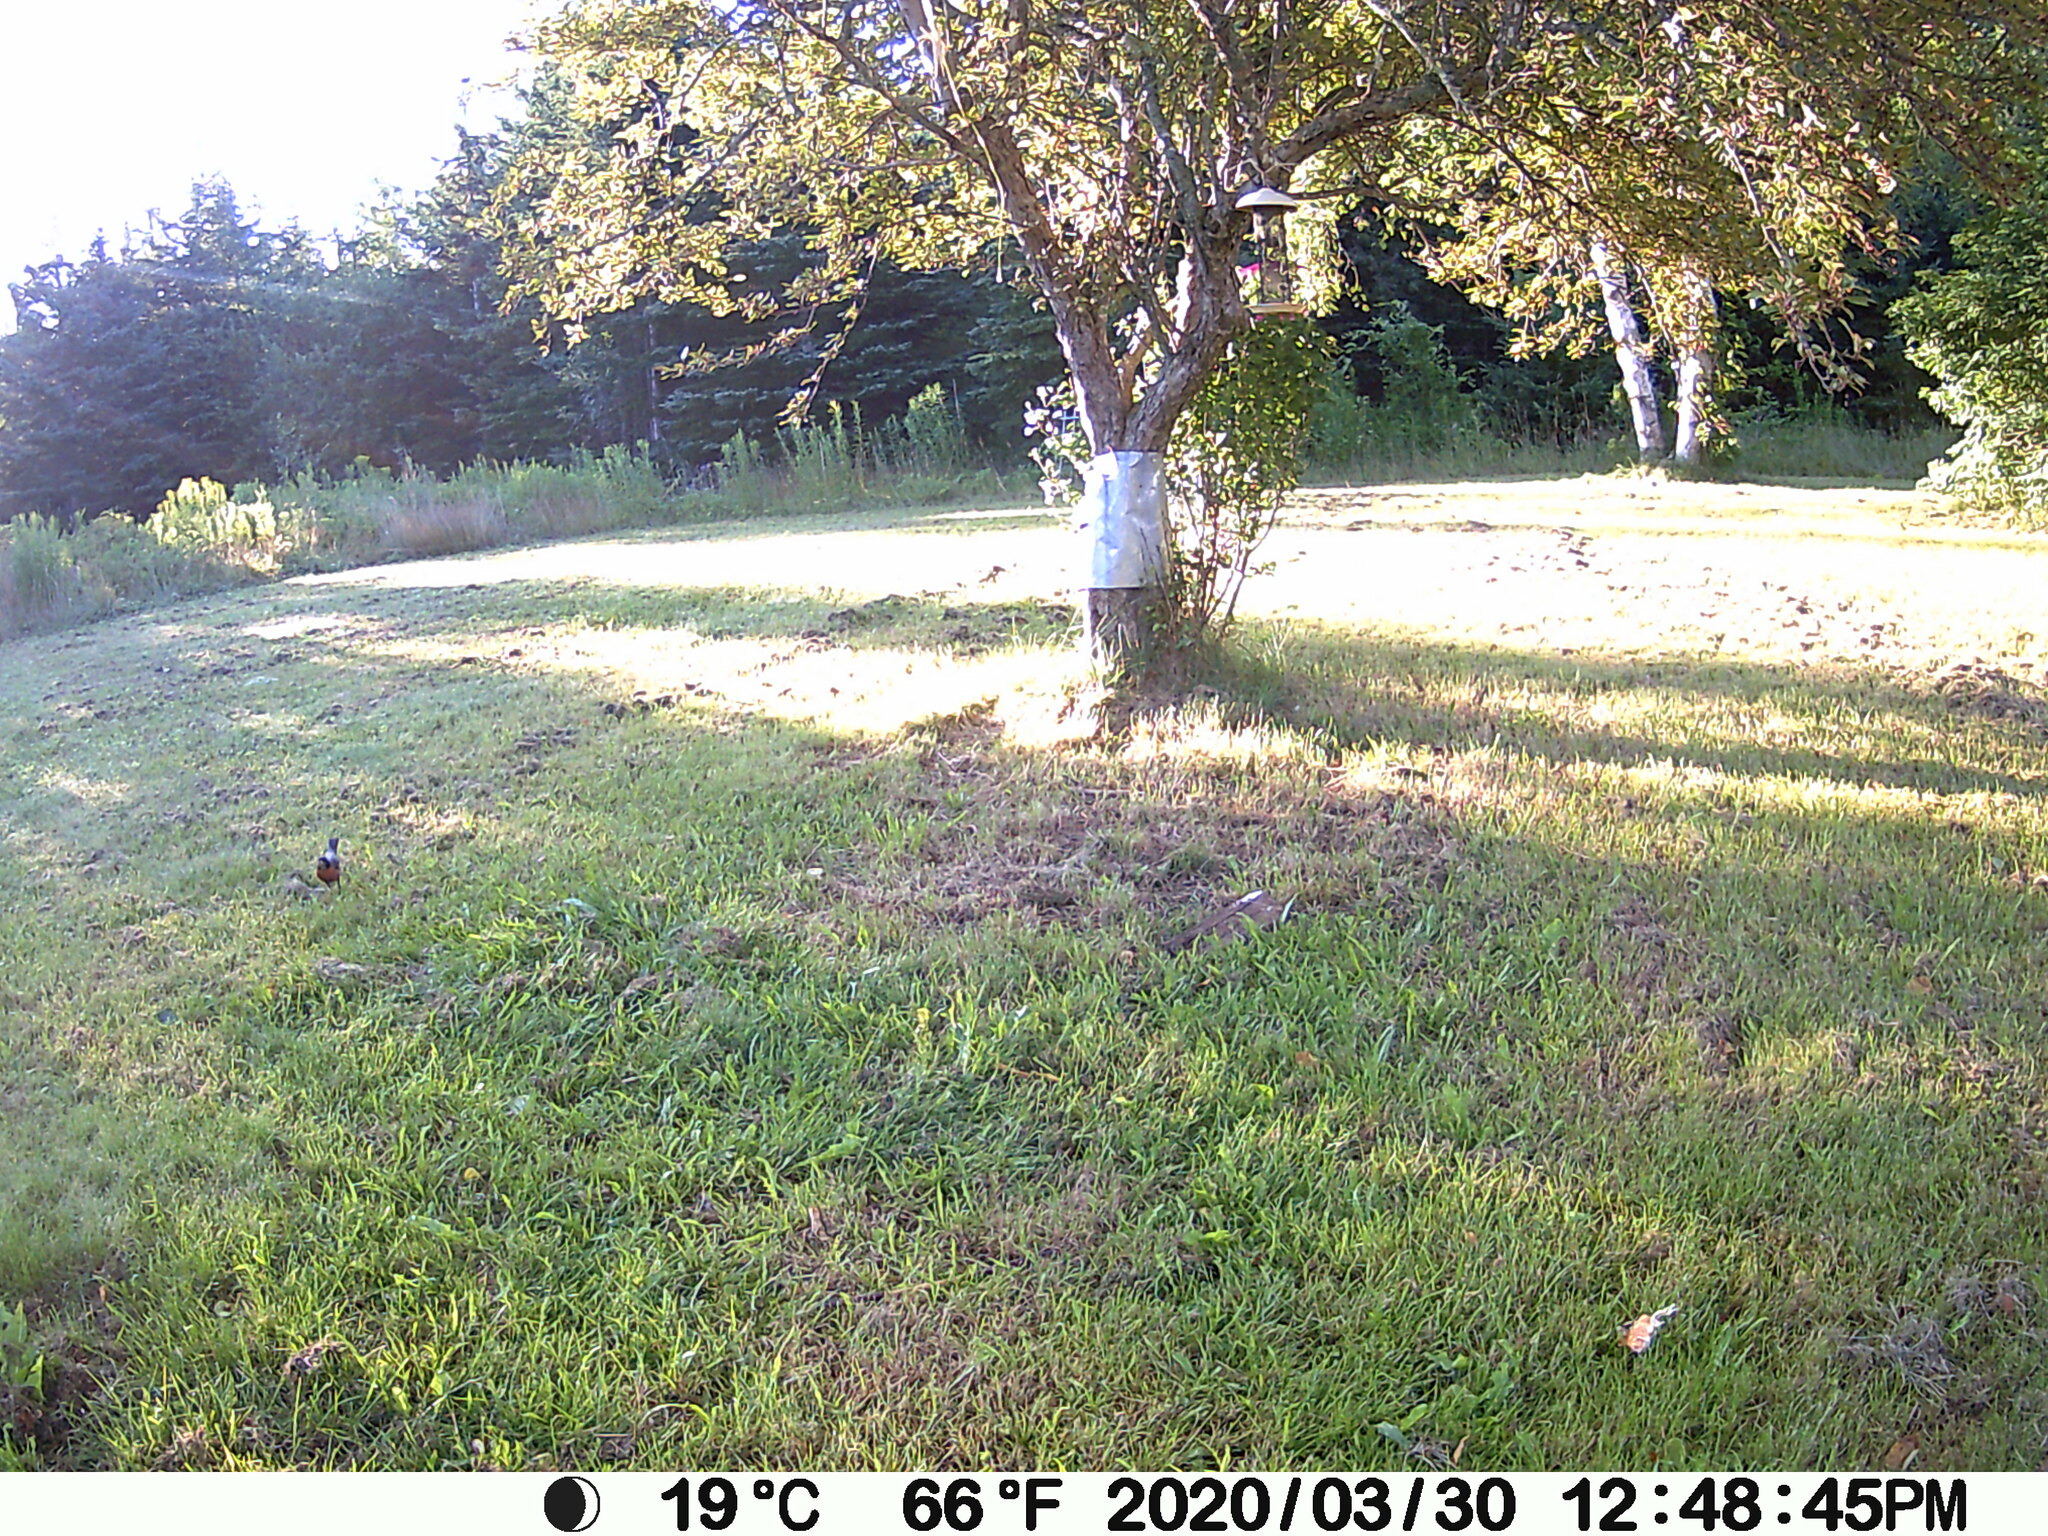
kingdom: Animalia
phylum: Chordata
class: Aves
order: Passeriformes
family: Turdidae
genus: Turdus
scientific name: Turdus migratorius
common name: American robin
